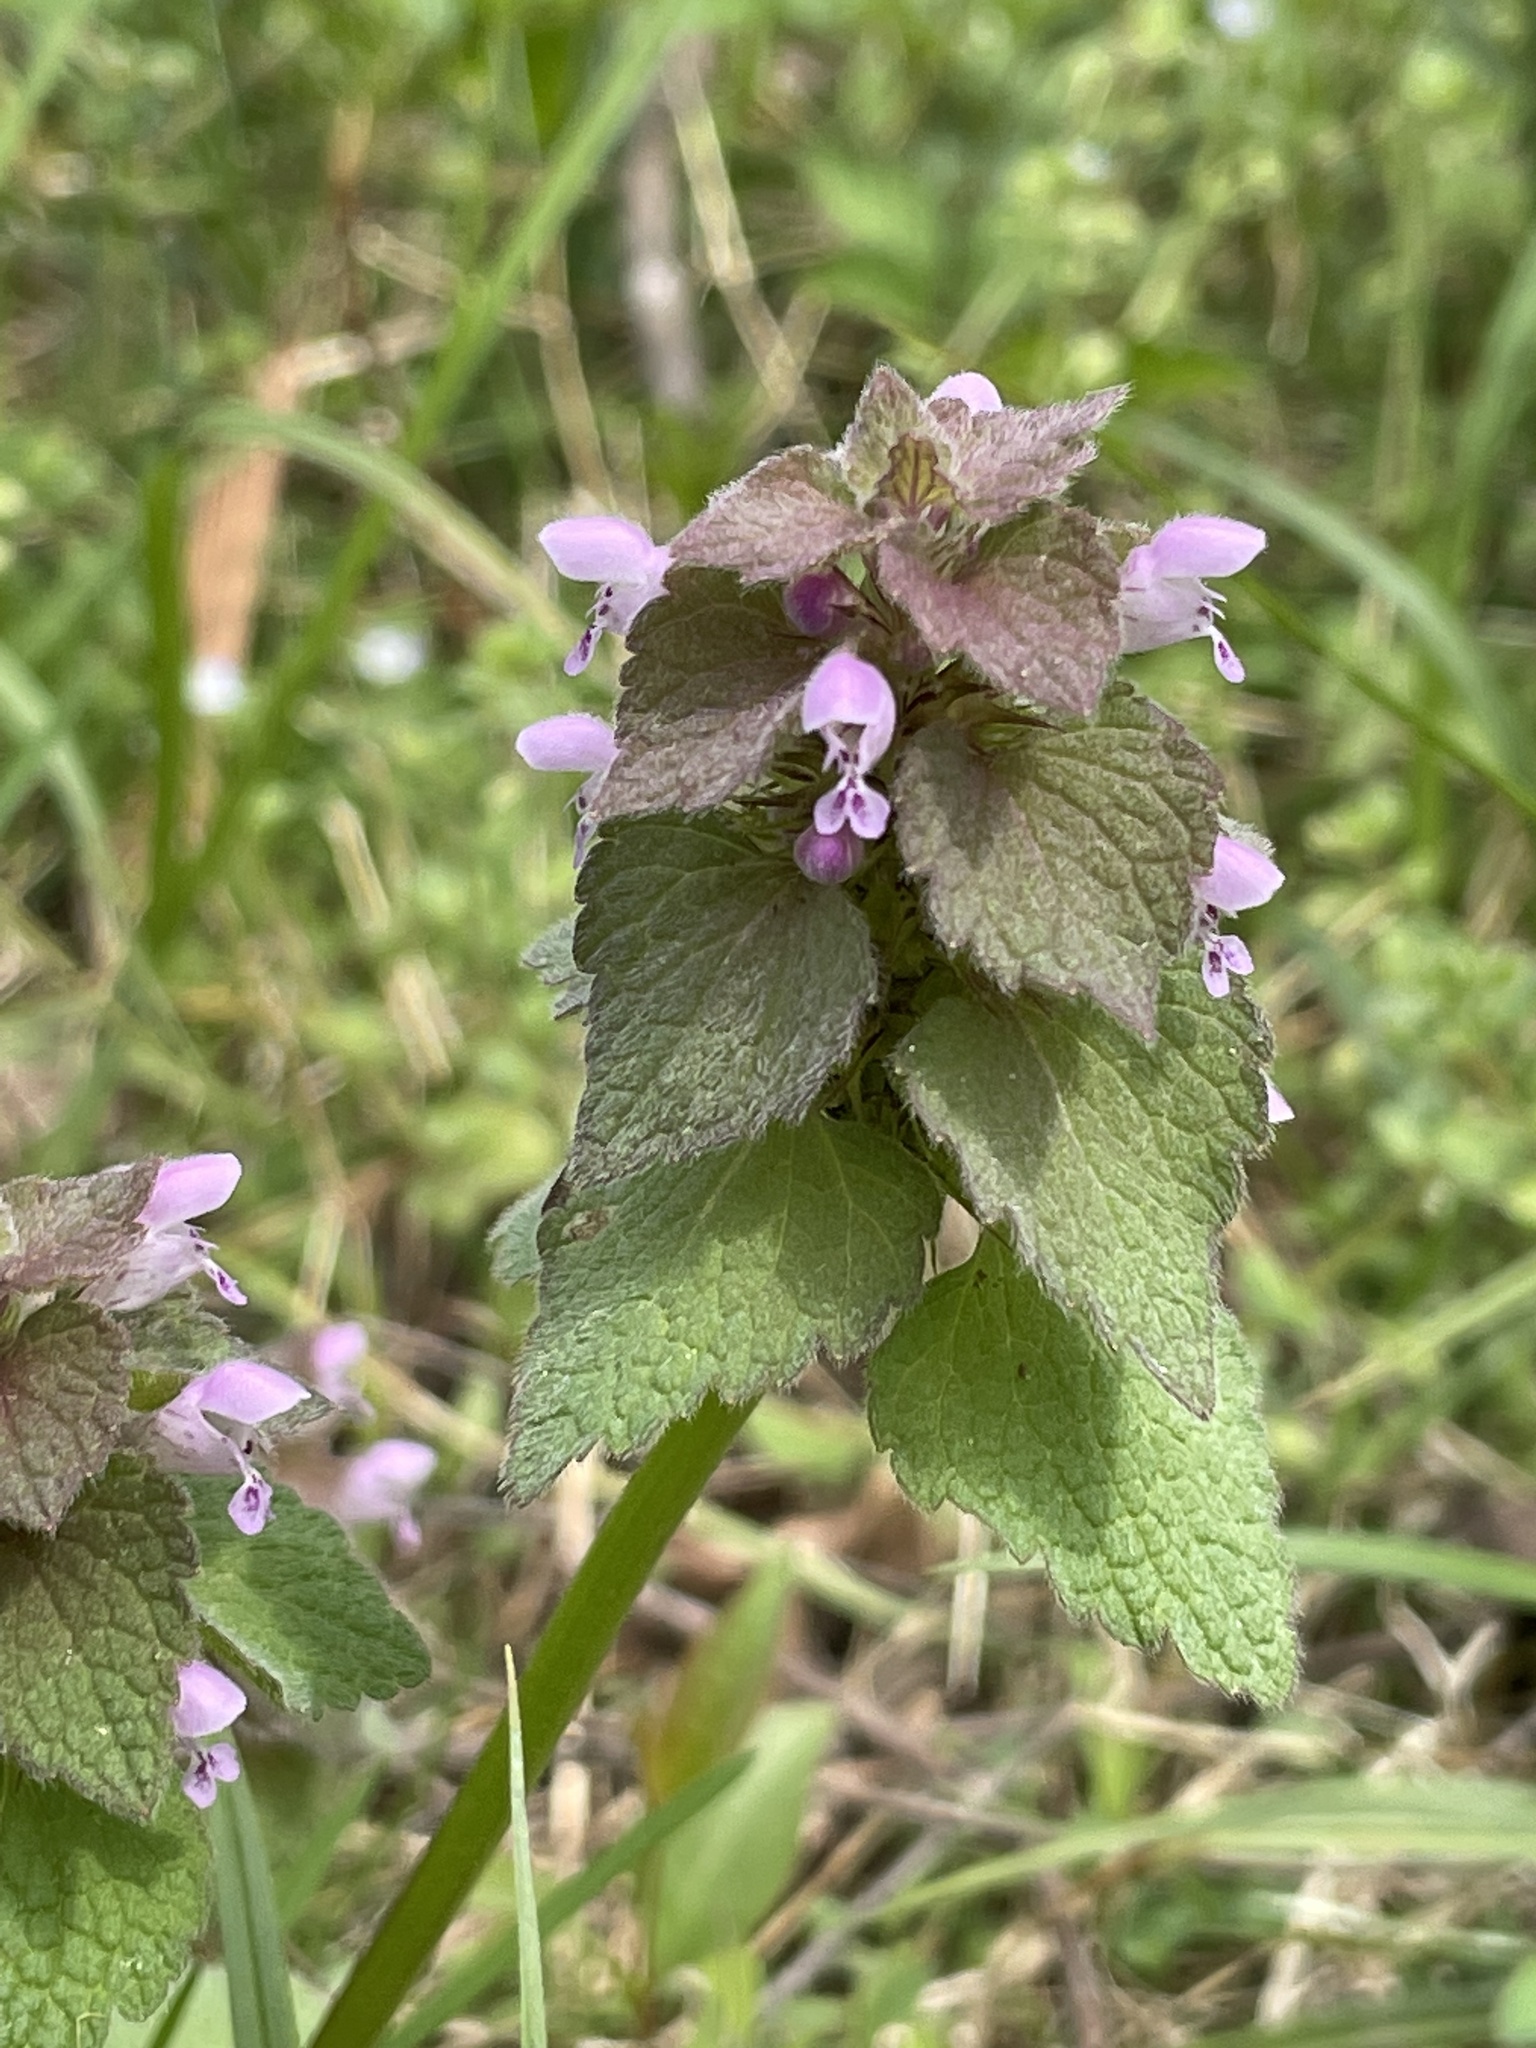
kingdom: Plantae
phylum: Tracheophyta
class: Magnoliopsida
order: Lamiales
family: Lamiaceae
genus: Lamium
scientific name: Lamium purpureum
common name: Red dead-nettle
